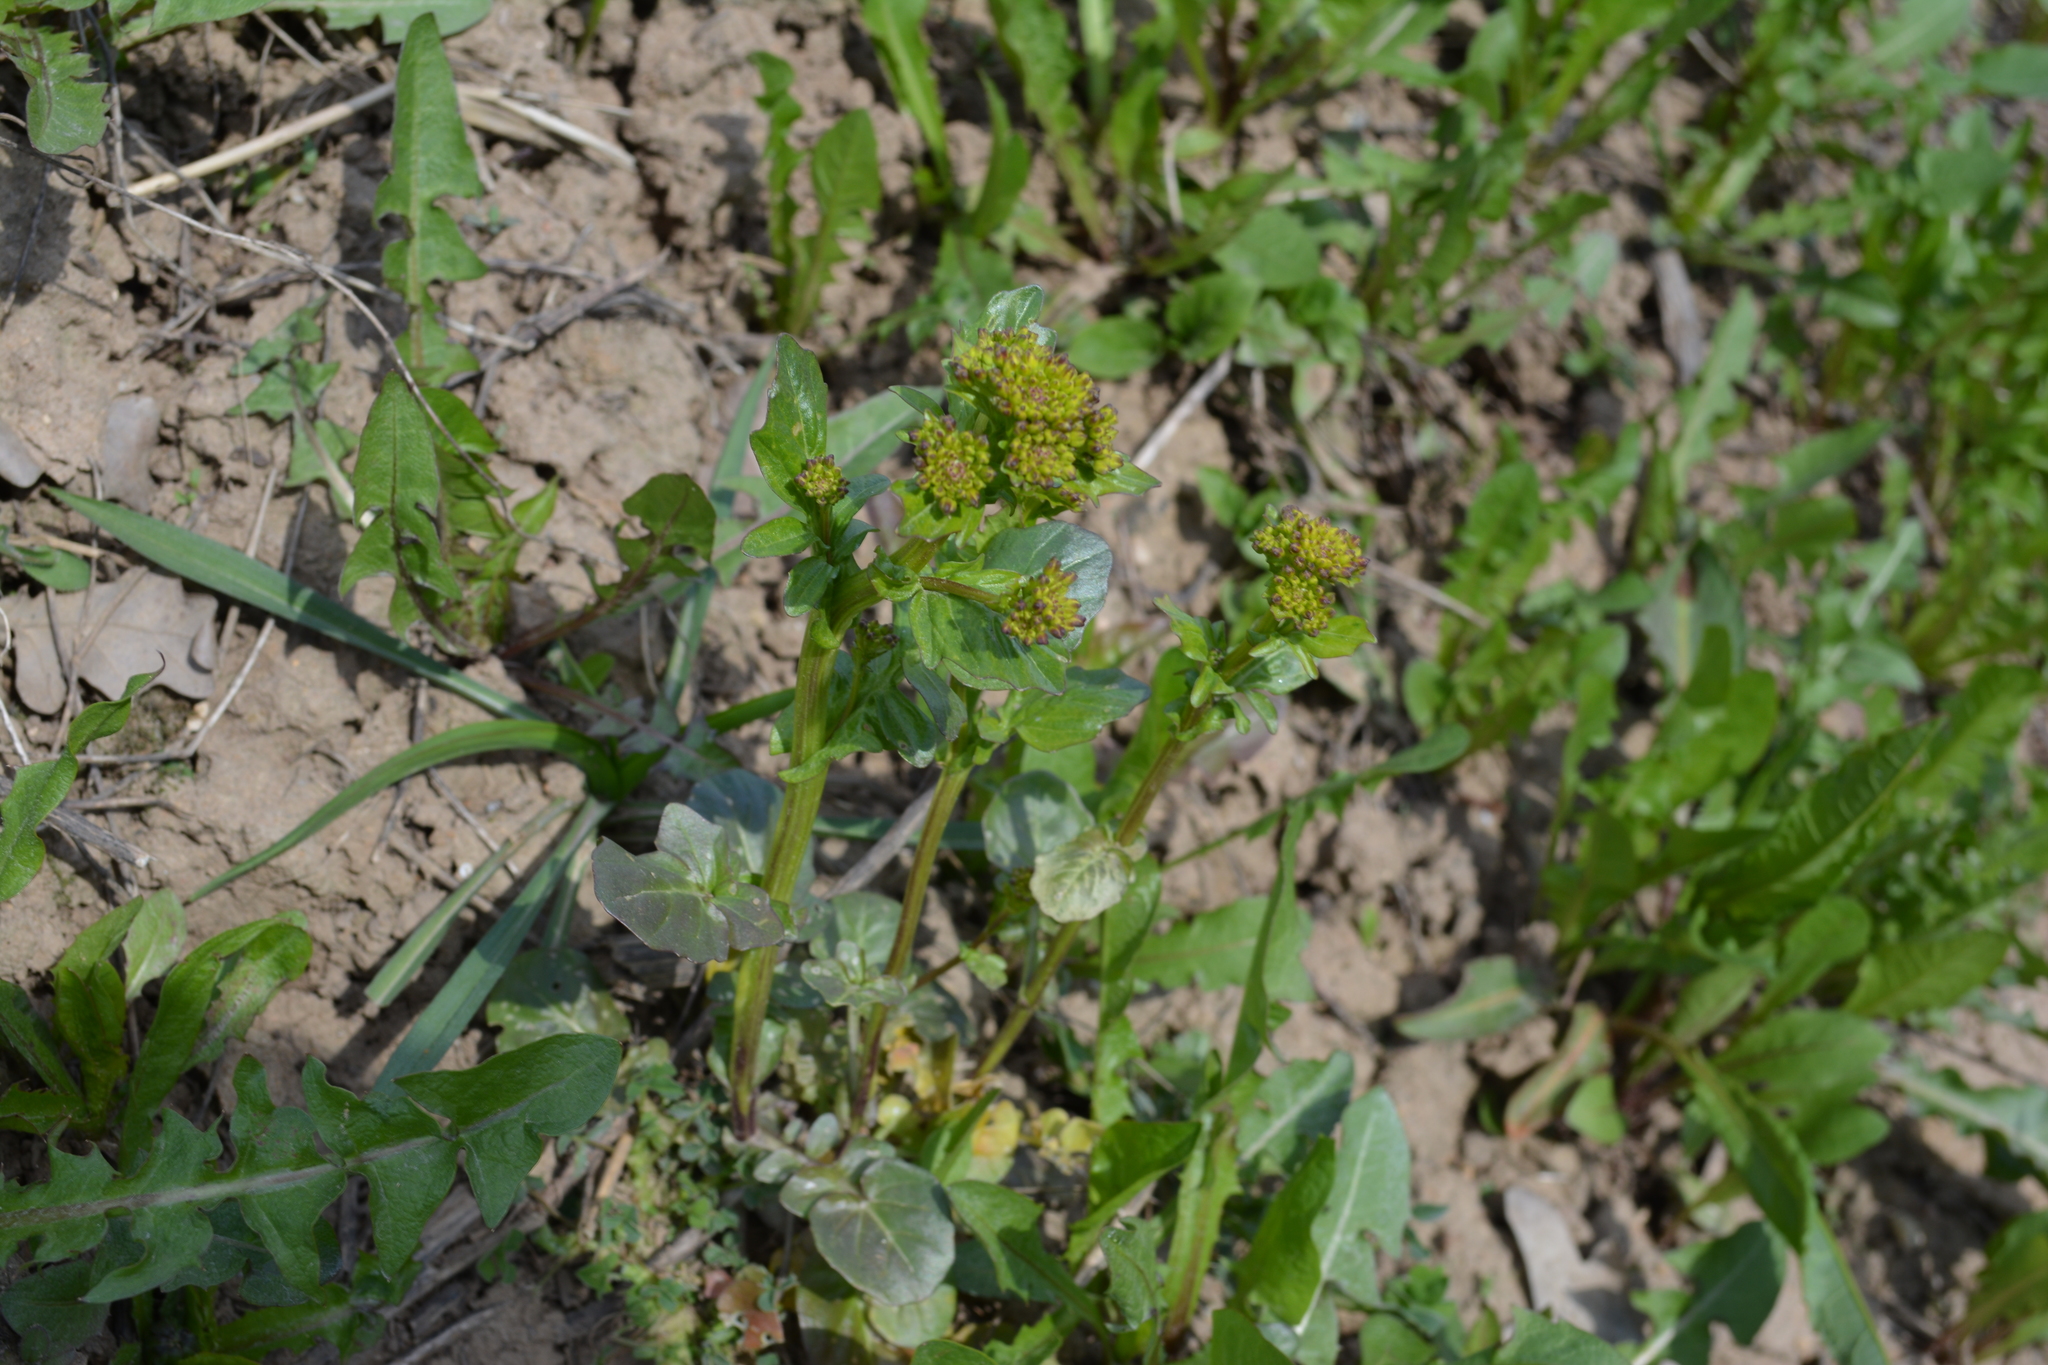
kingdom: Plantae
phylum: Tracheophyta
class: Magnoliopsida
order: Brassicales
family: Brassicaceae
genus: Barbarea
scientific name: Barbarea vulgaris
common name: Cressy-greens
